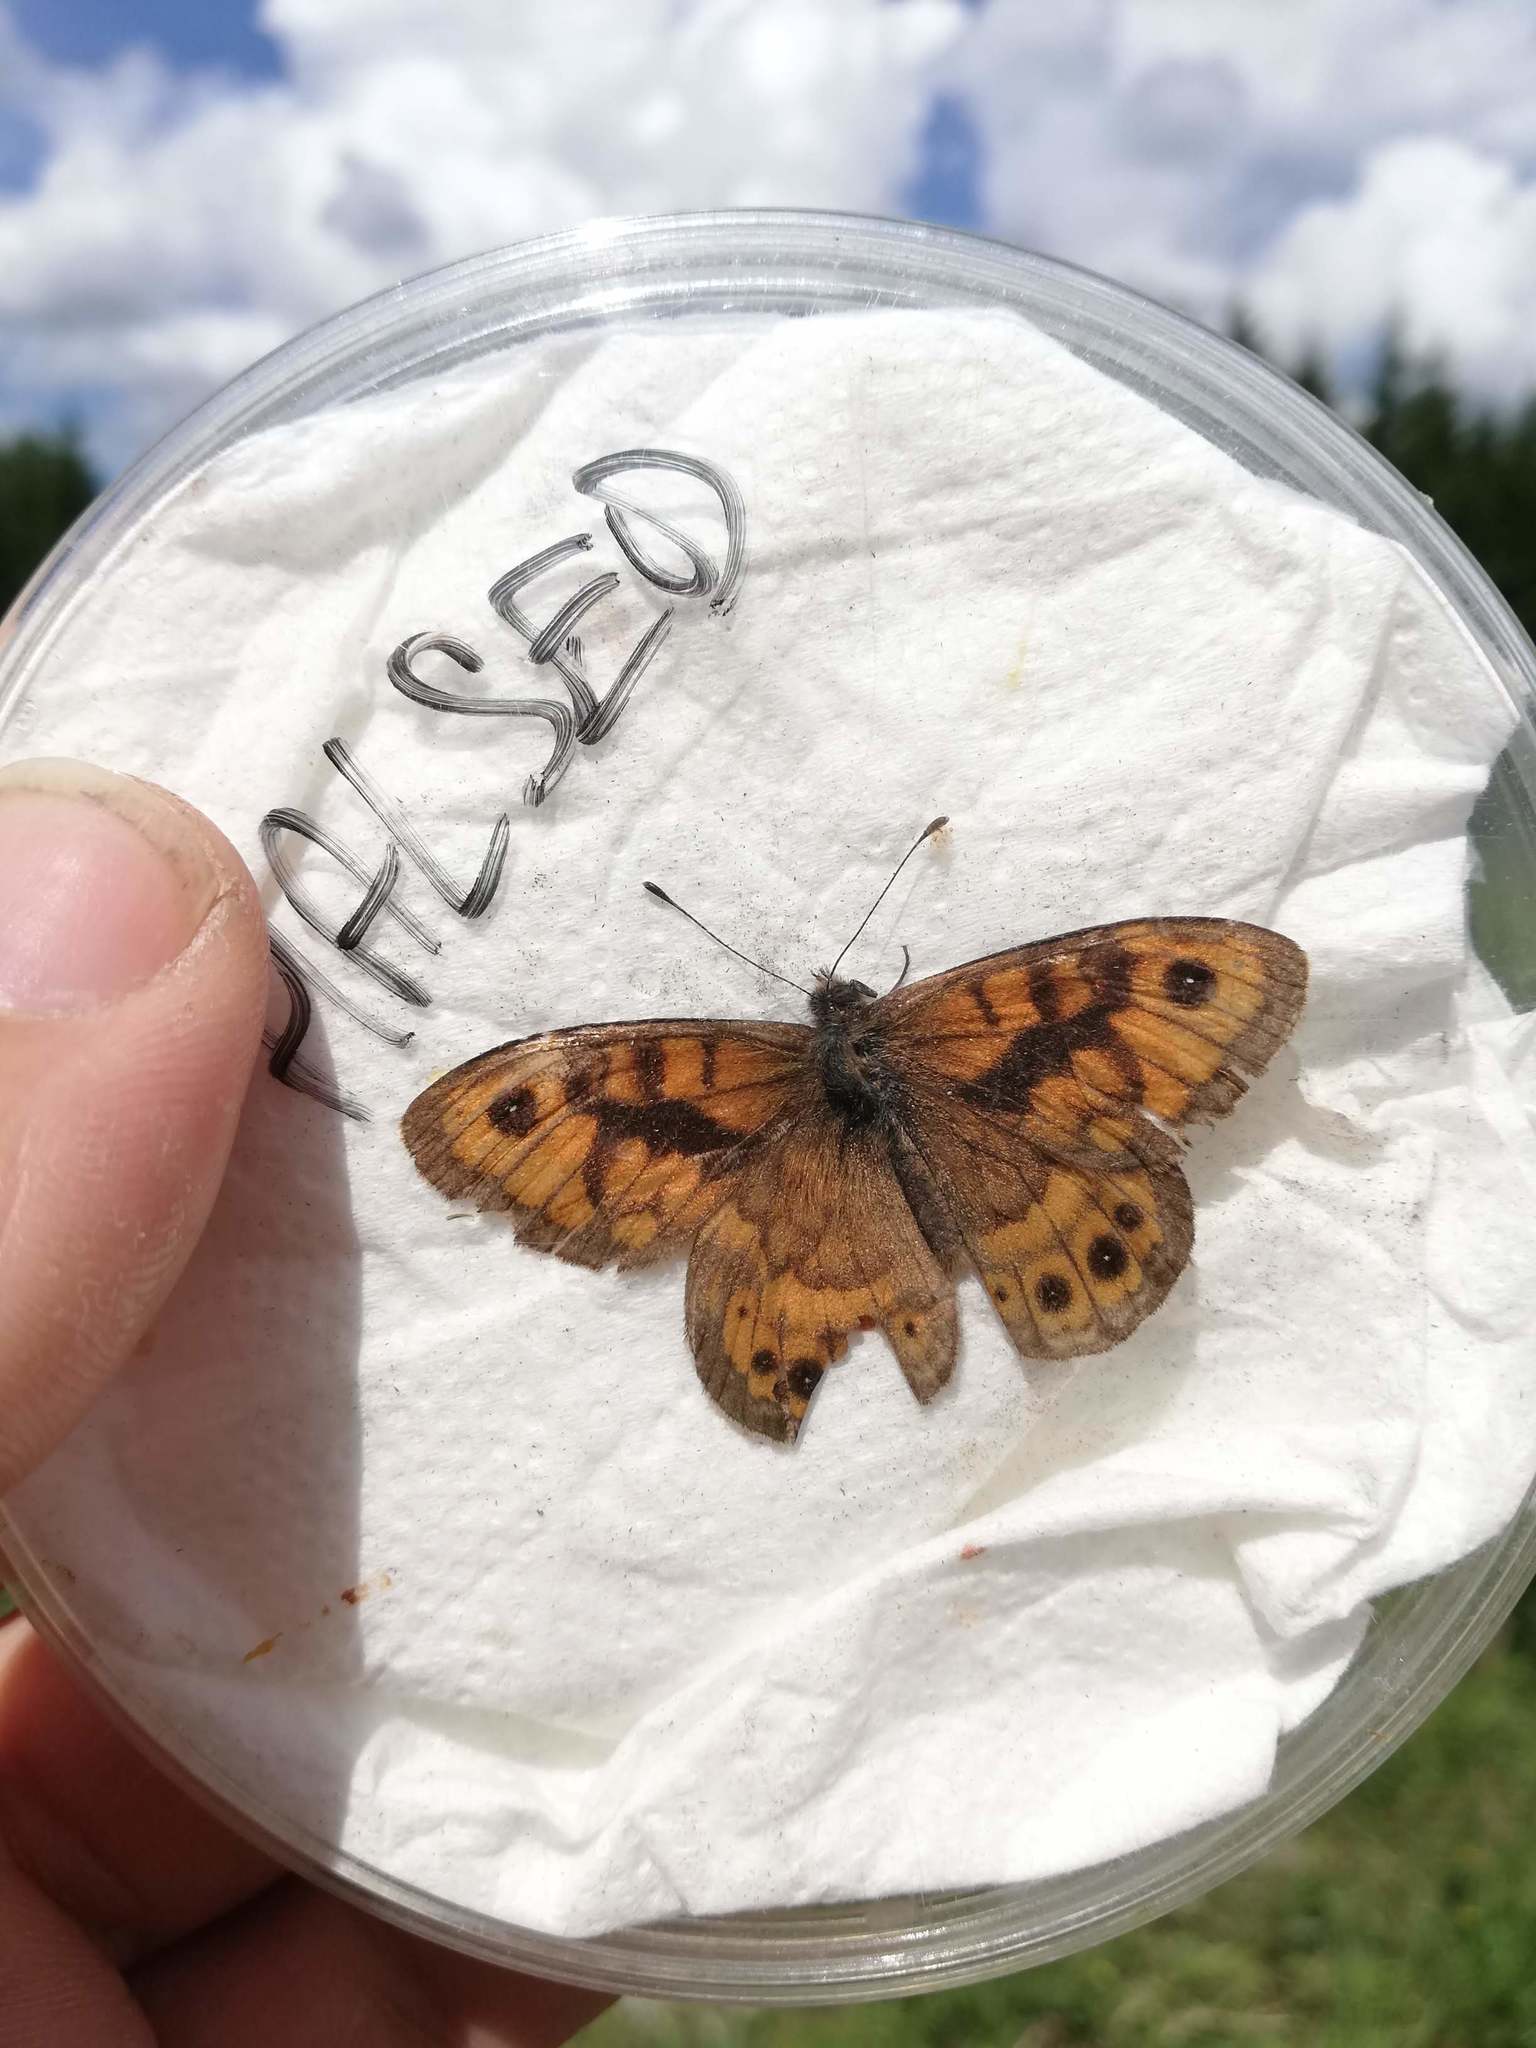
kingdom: Animalia
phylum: Arthropoda
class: Insecta
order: Lepidoptera
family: Nymphalidae
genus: Pararge
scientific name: Pararge Lasiommata megera
